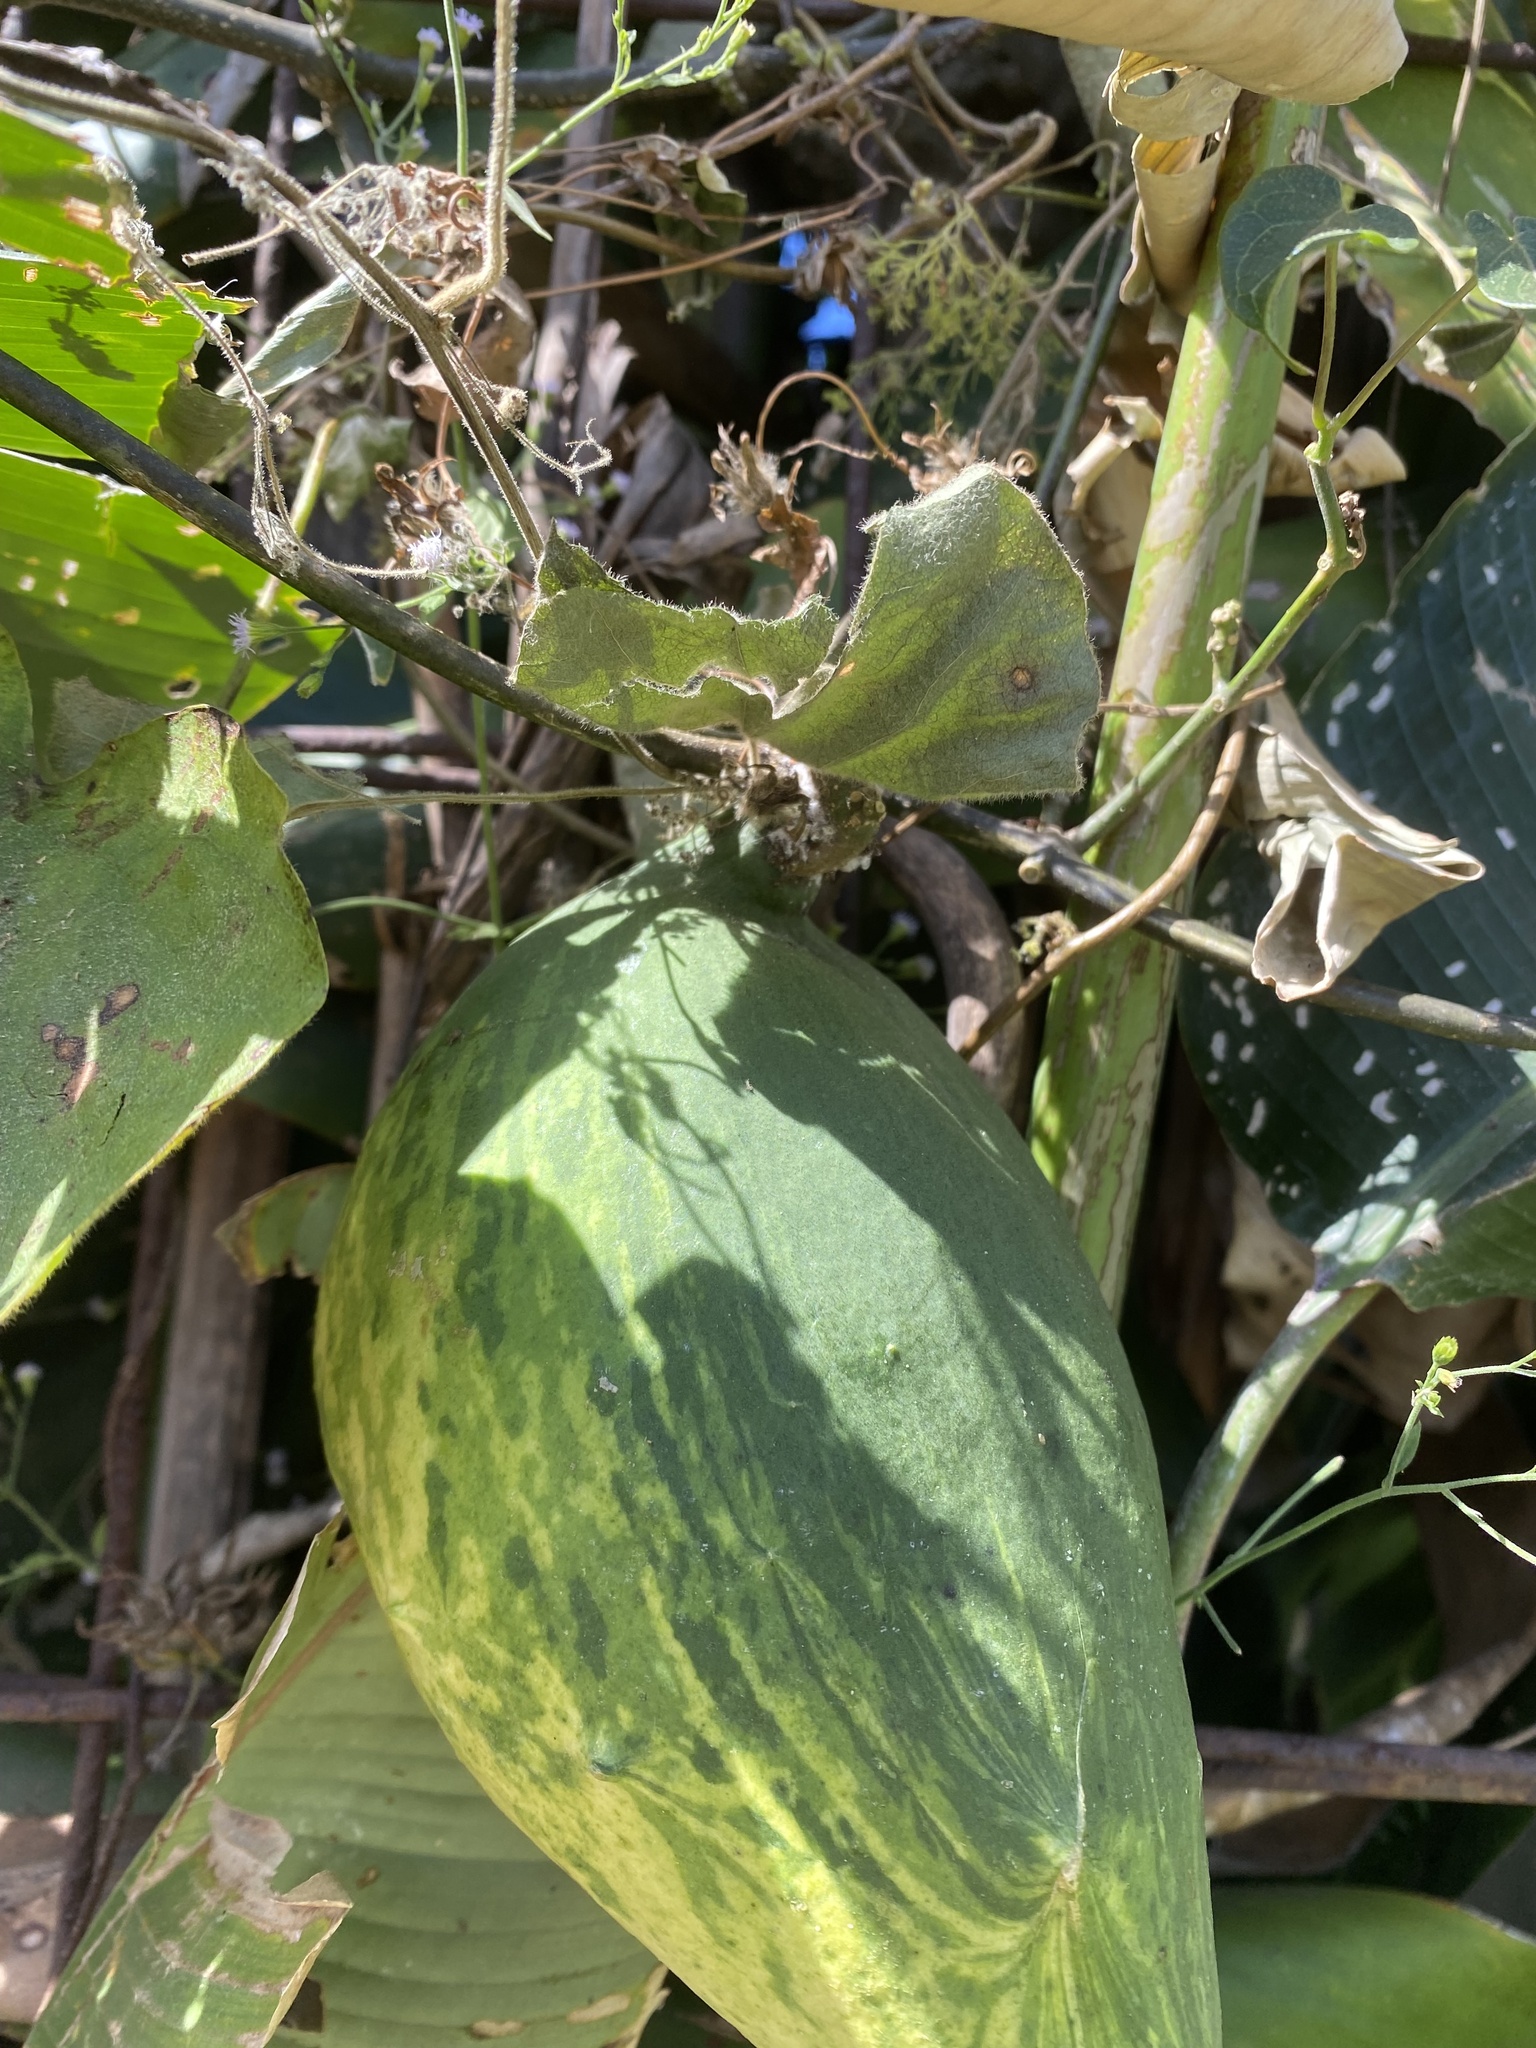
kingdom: Plantae
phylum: Tracheophyta
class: Magnoliopsida
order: Gentianales
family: Apocynaceae
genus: Gonolobus
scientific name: Gonolobus taylorianus
